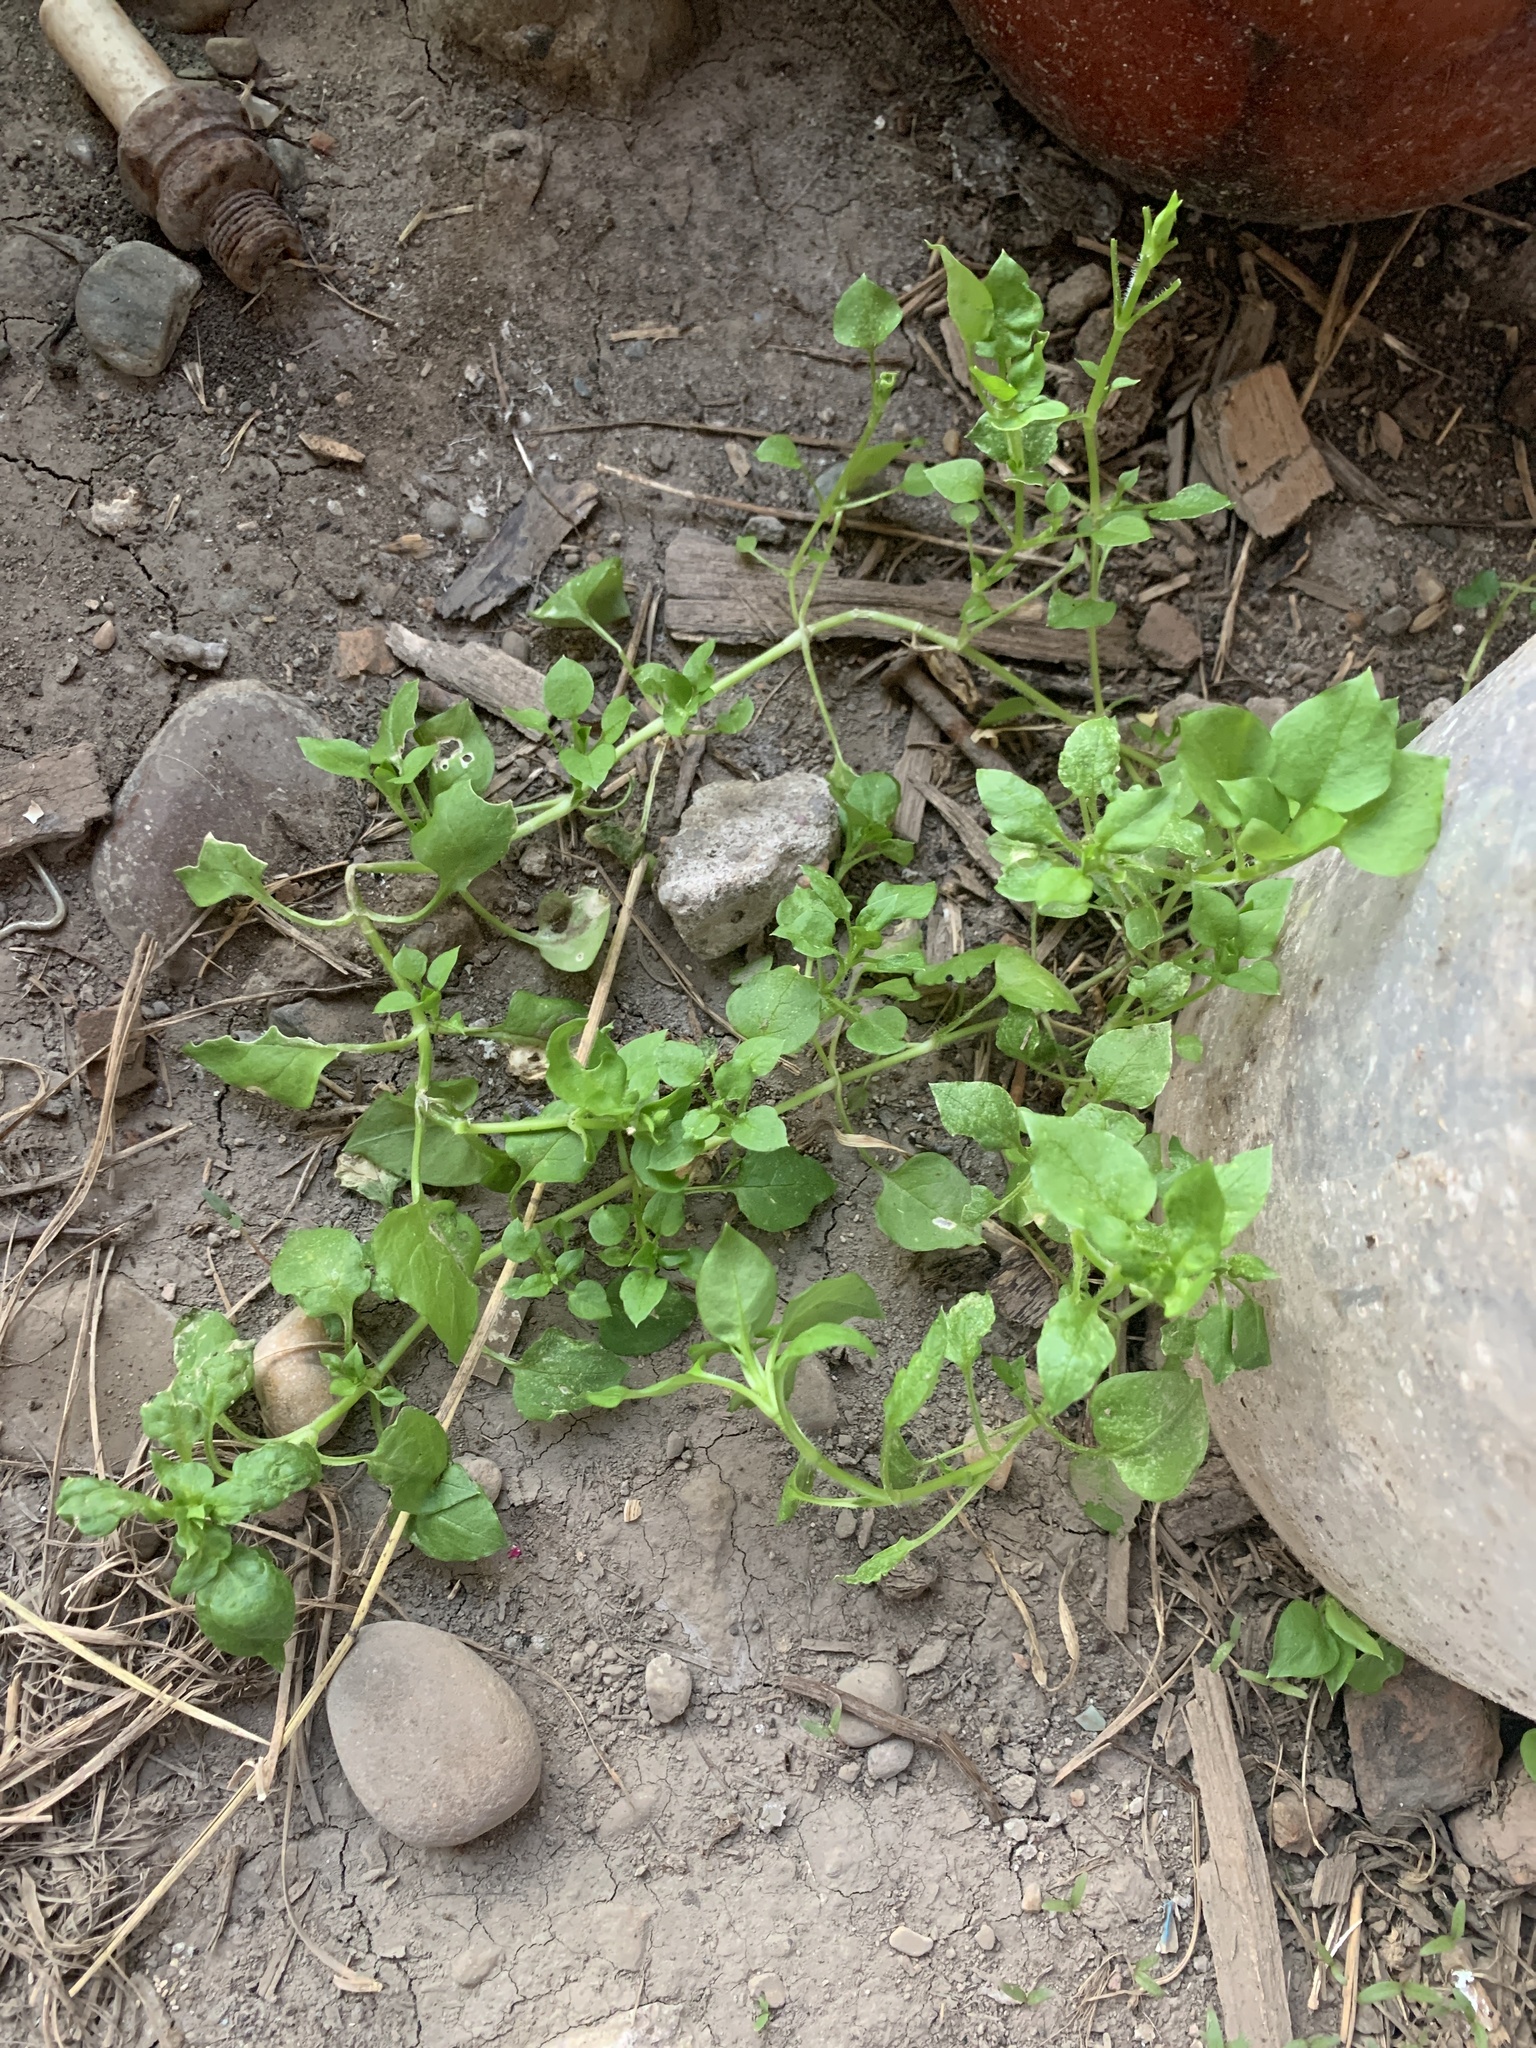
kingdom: Plantae
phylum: Tracheophyta
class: Magnoliopsida
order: Caryophyllales
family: Caryophyllaceae
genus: Stellaria
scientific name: Stellaria media
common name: Common chickweed
